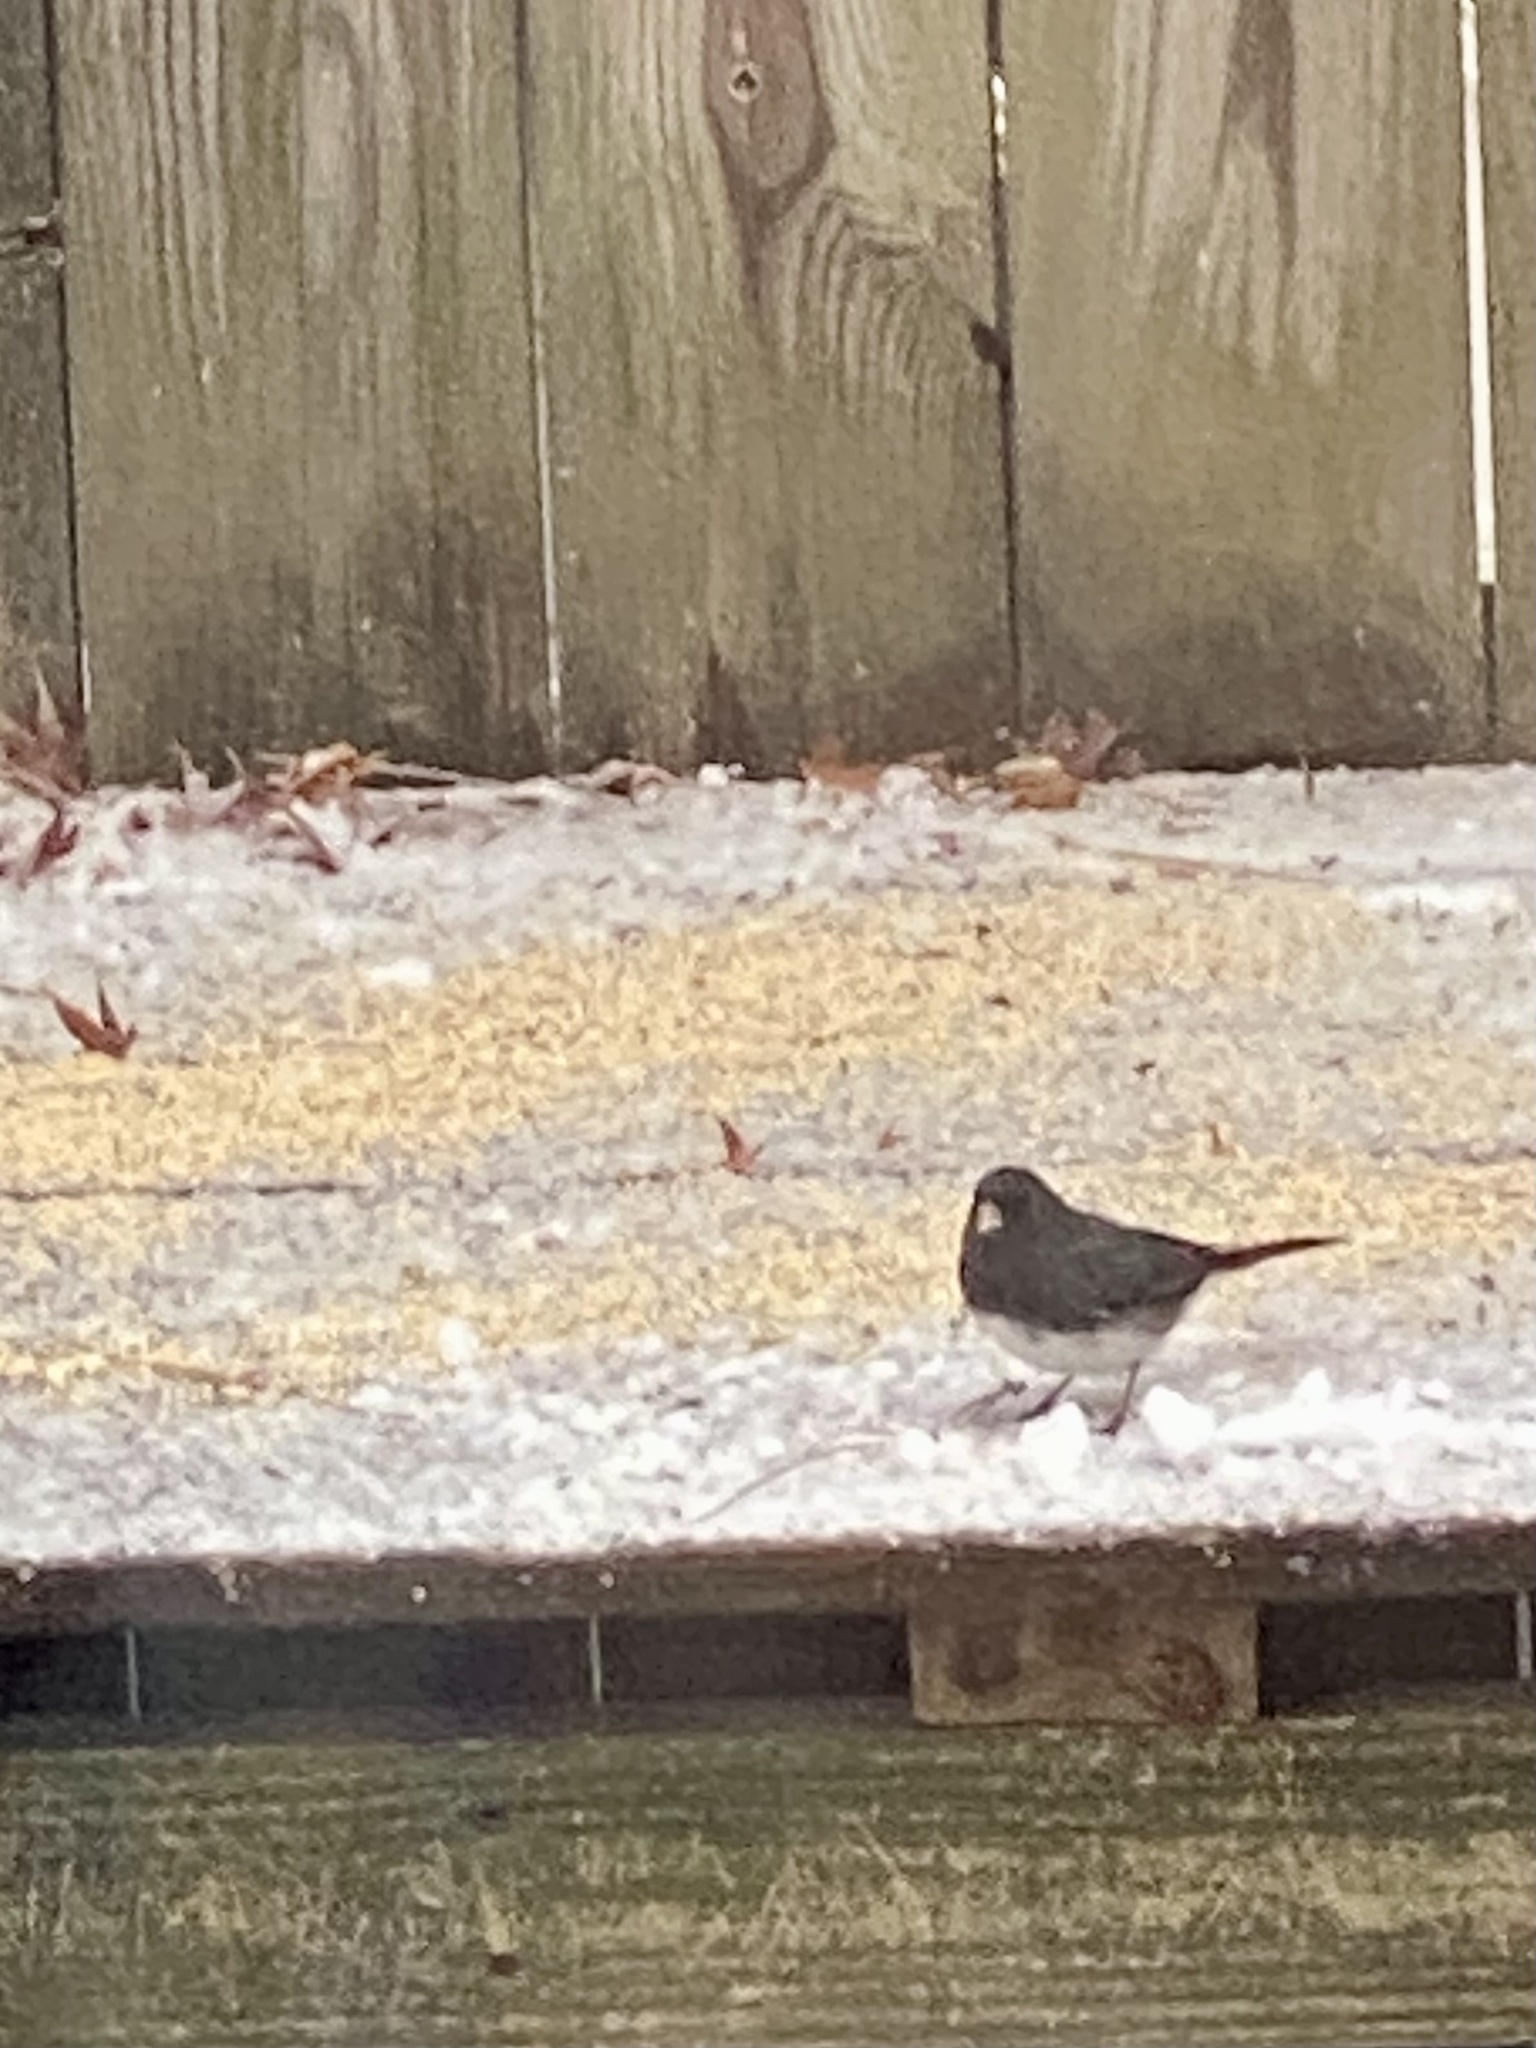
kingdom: Animalia
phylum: Chordata
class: Aves
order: Passeriformes
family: Passerellidae
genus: Junco
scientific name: Junco hyemalis
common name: Dark-eyed junco
